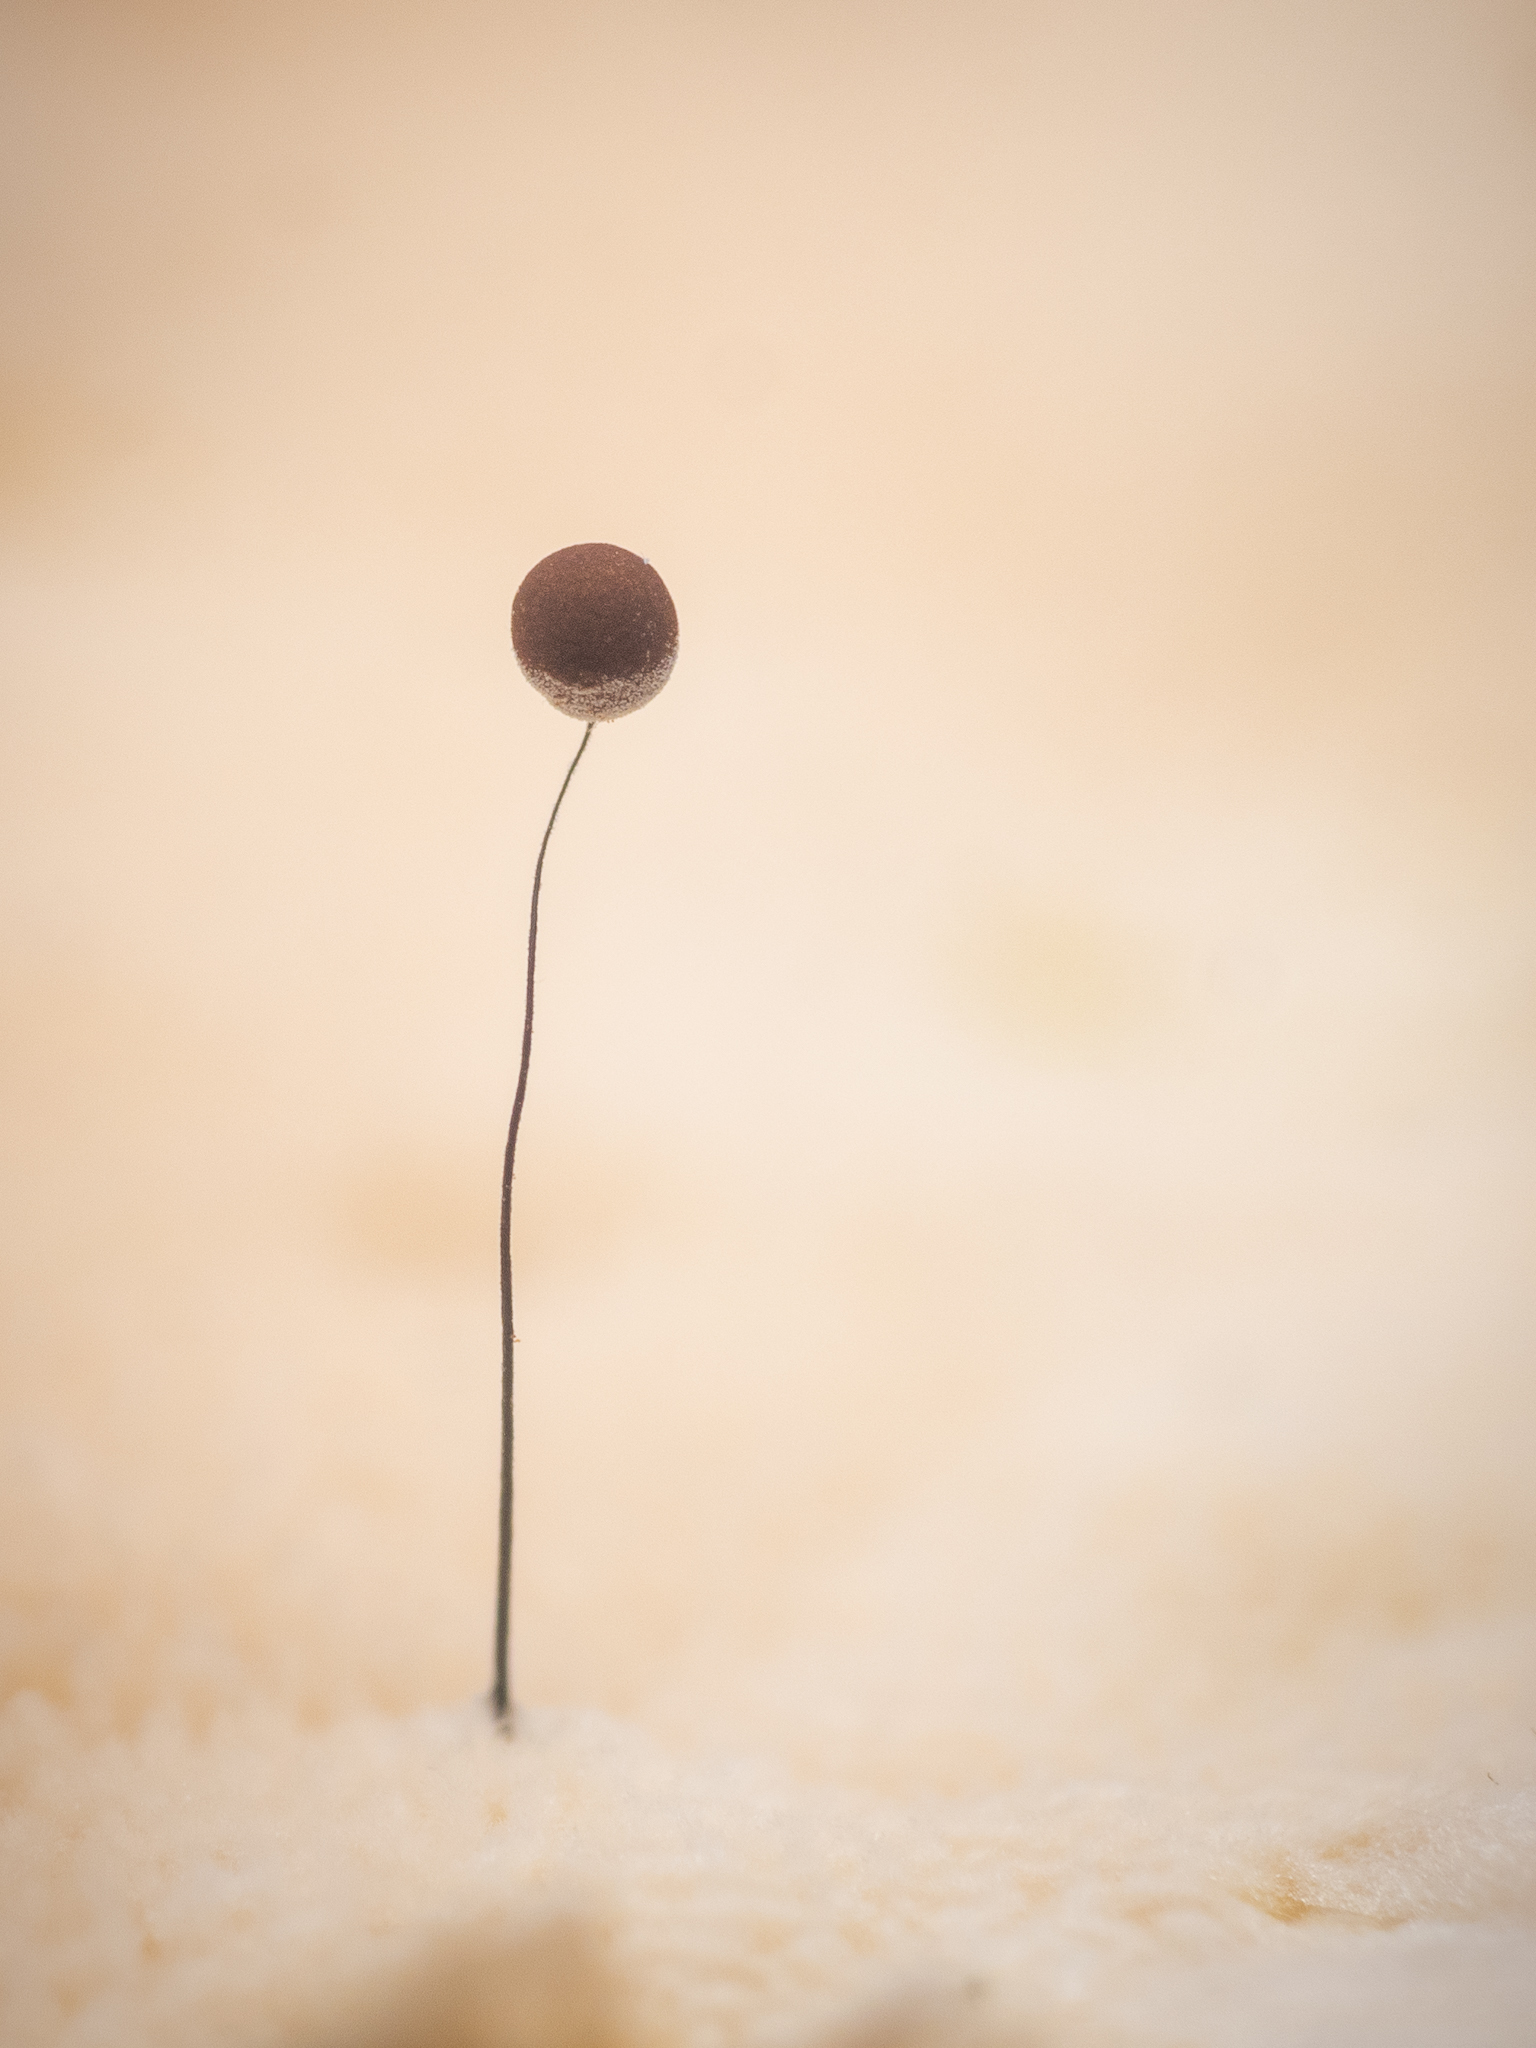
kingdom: Protozoa
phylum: Mycetozoa
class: Myxomycetes
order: Stemonitidales
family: Stemonitidaceae
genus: Comatricha
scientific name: Comatricha nigra
